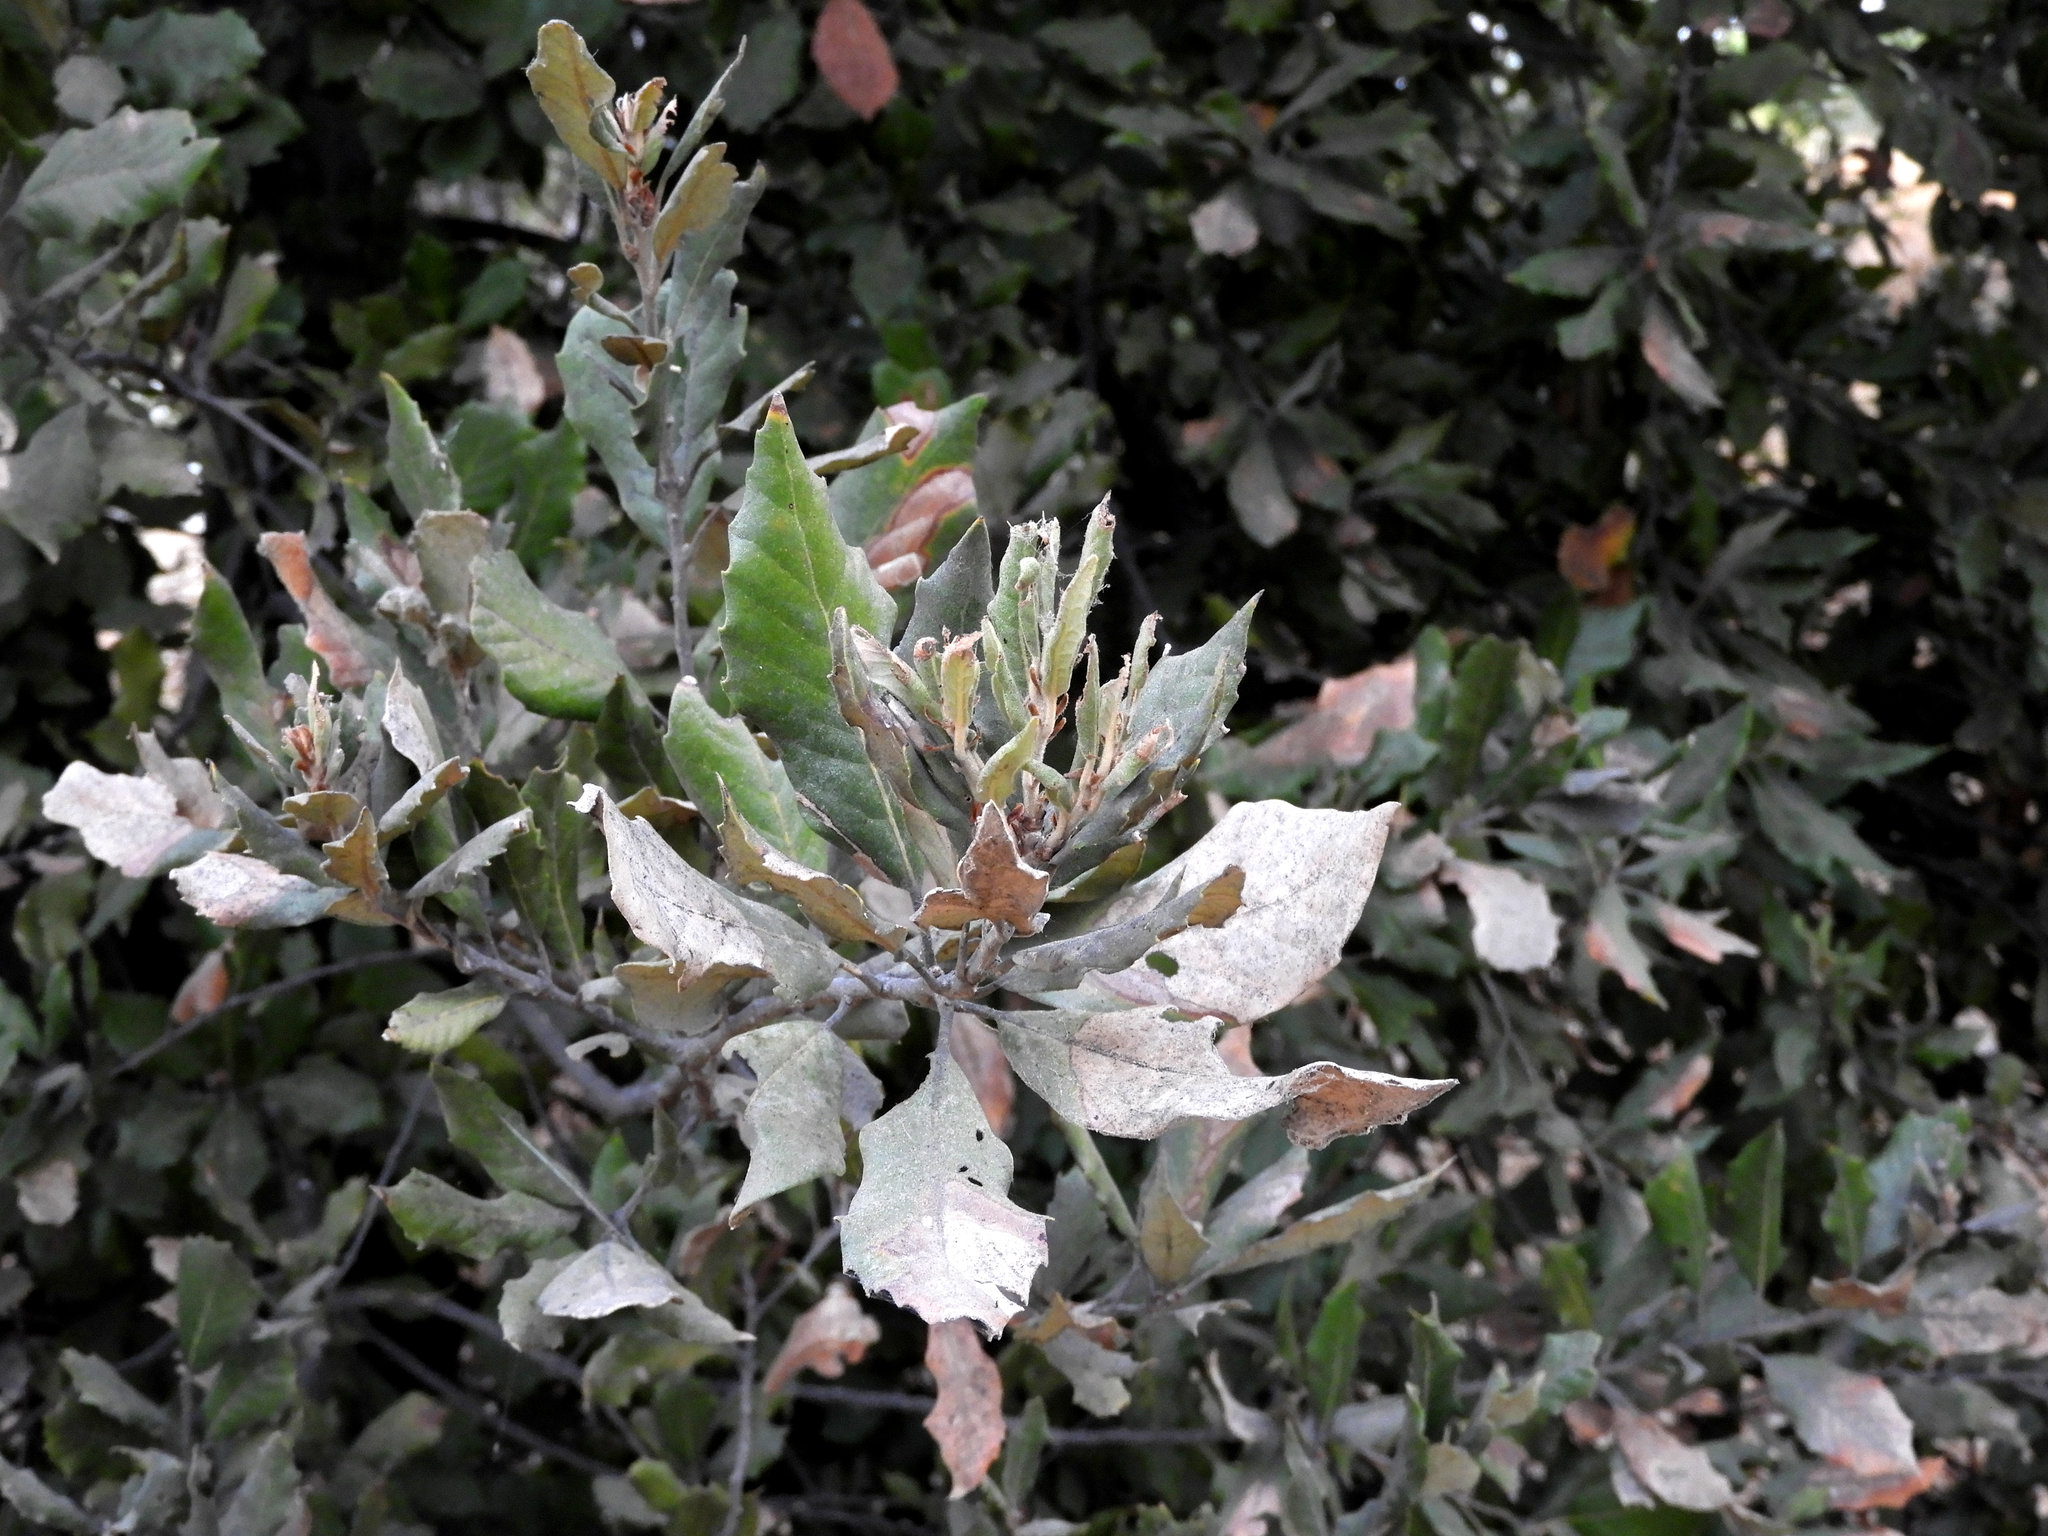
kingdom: Plantae
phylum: Tracheophyta
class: Magnoliopsida
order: Fagales
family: Fagaceae
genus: Quercus
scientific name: Quercus ilex
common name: Evergreen oak
